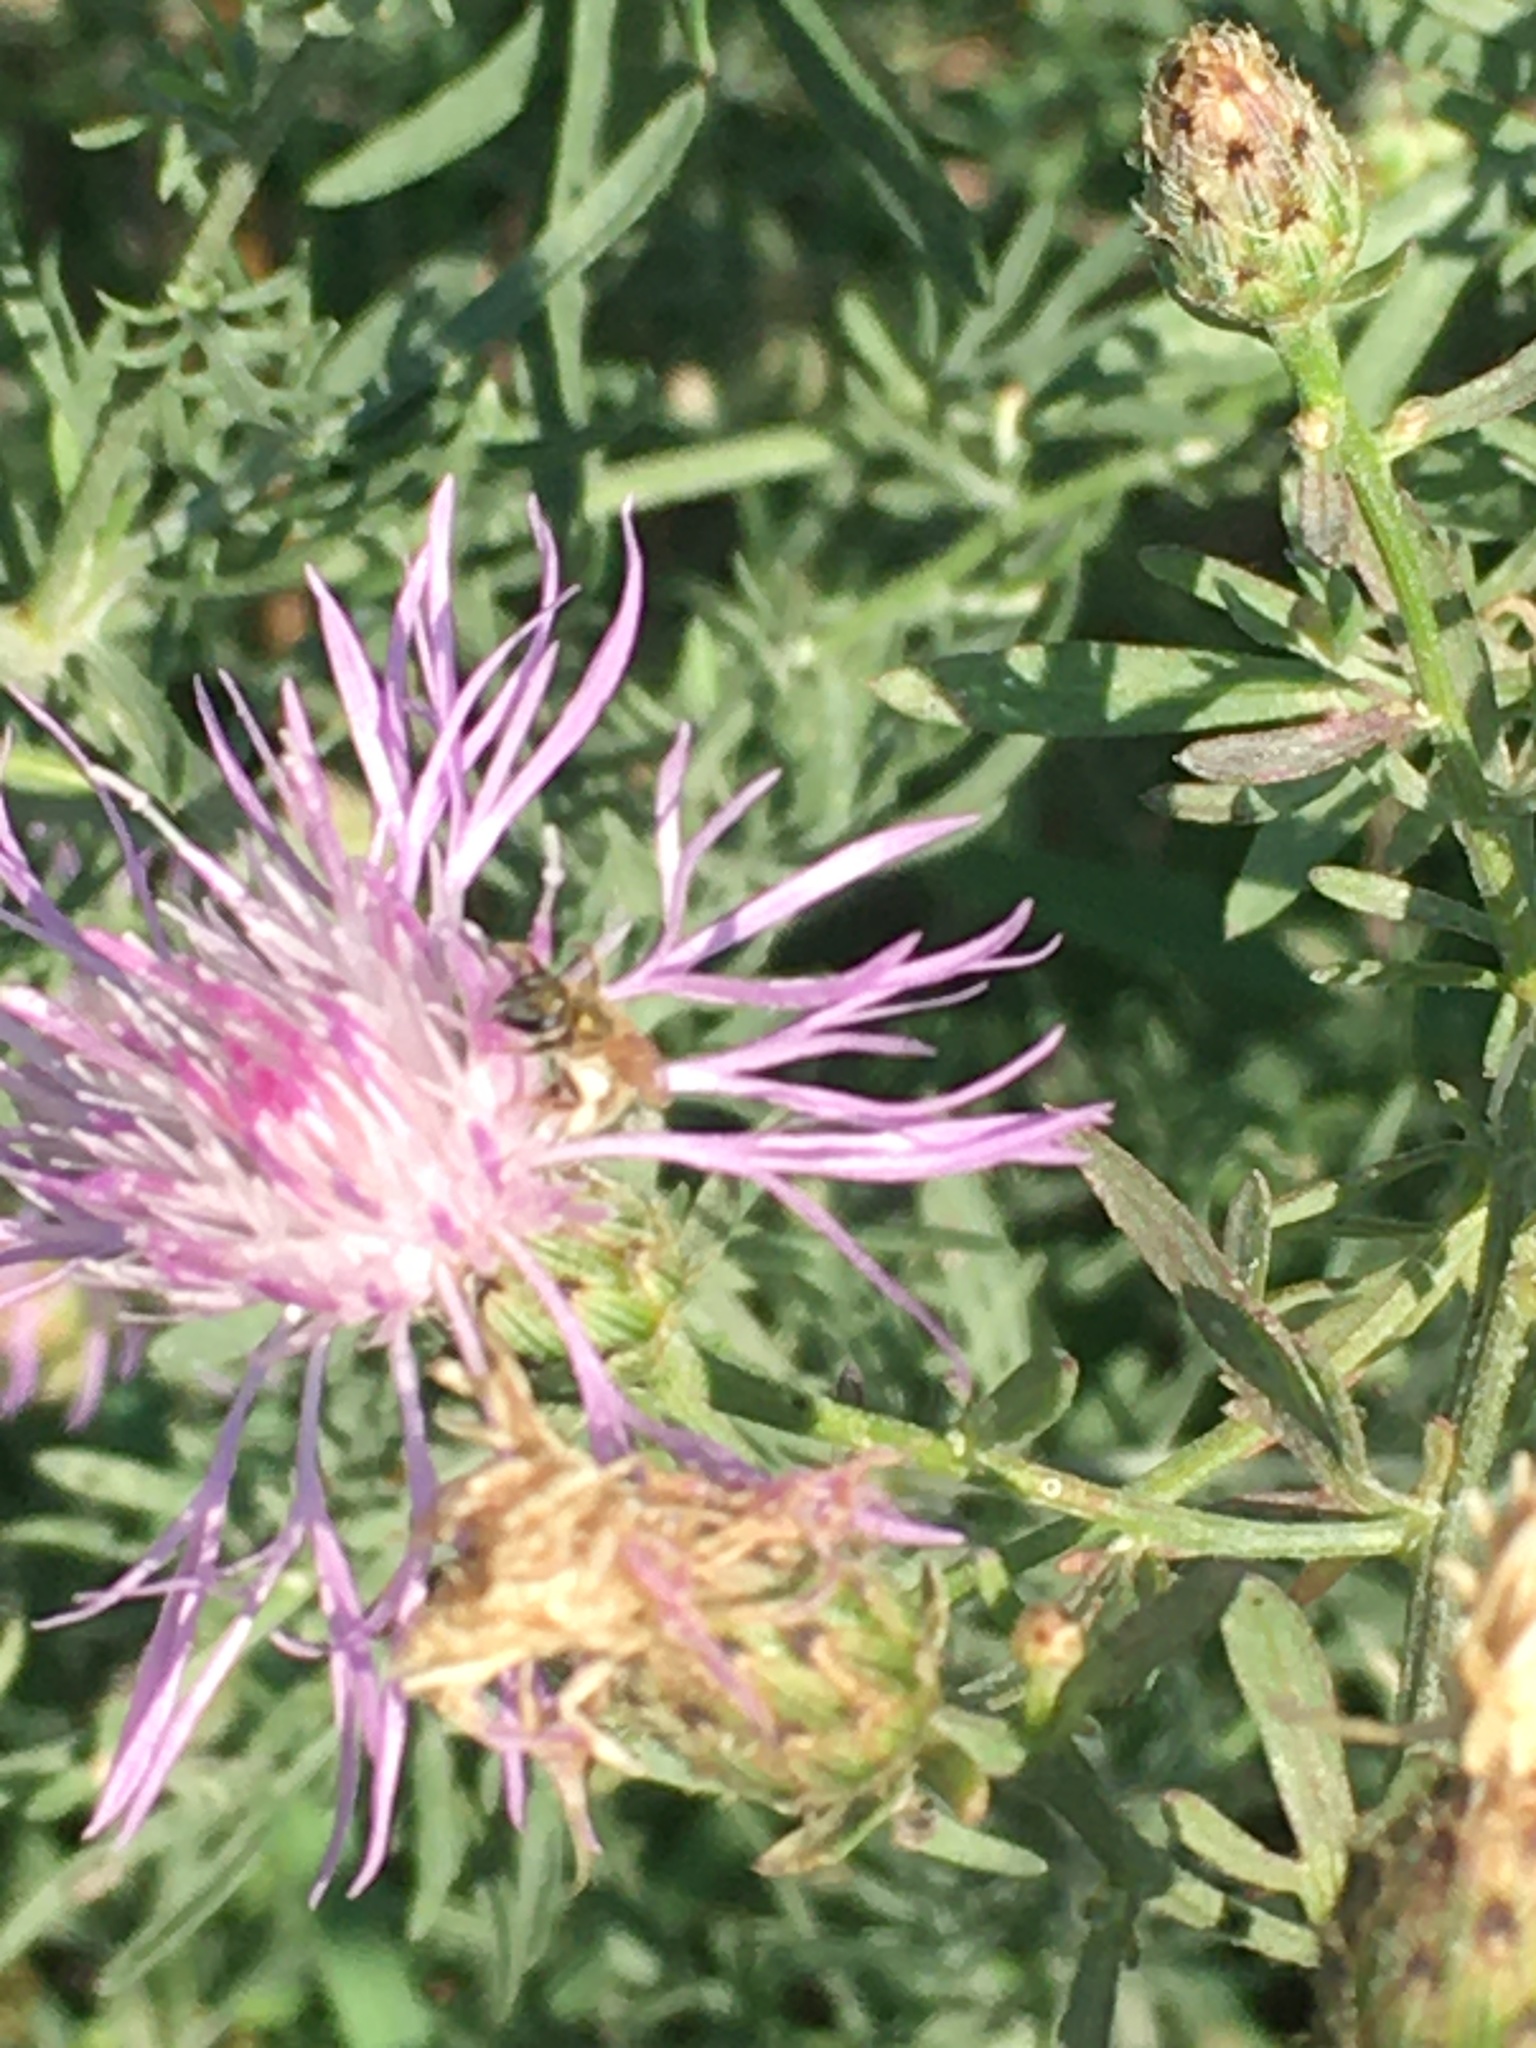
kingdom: Animalia
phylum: Arthropoda
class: Insecta
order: Hymenoptera
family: Halictidae
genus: Dialictus
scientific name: Dialictus
